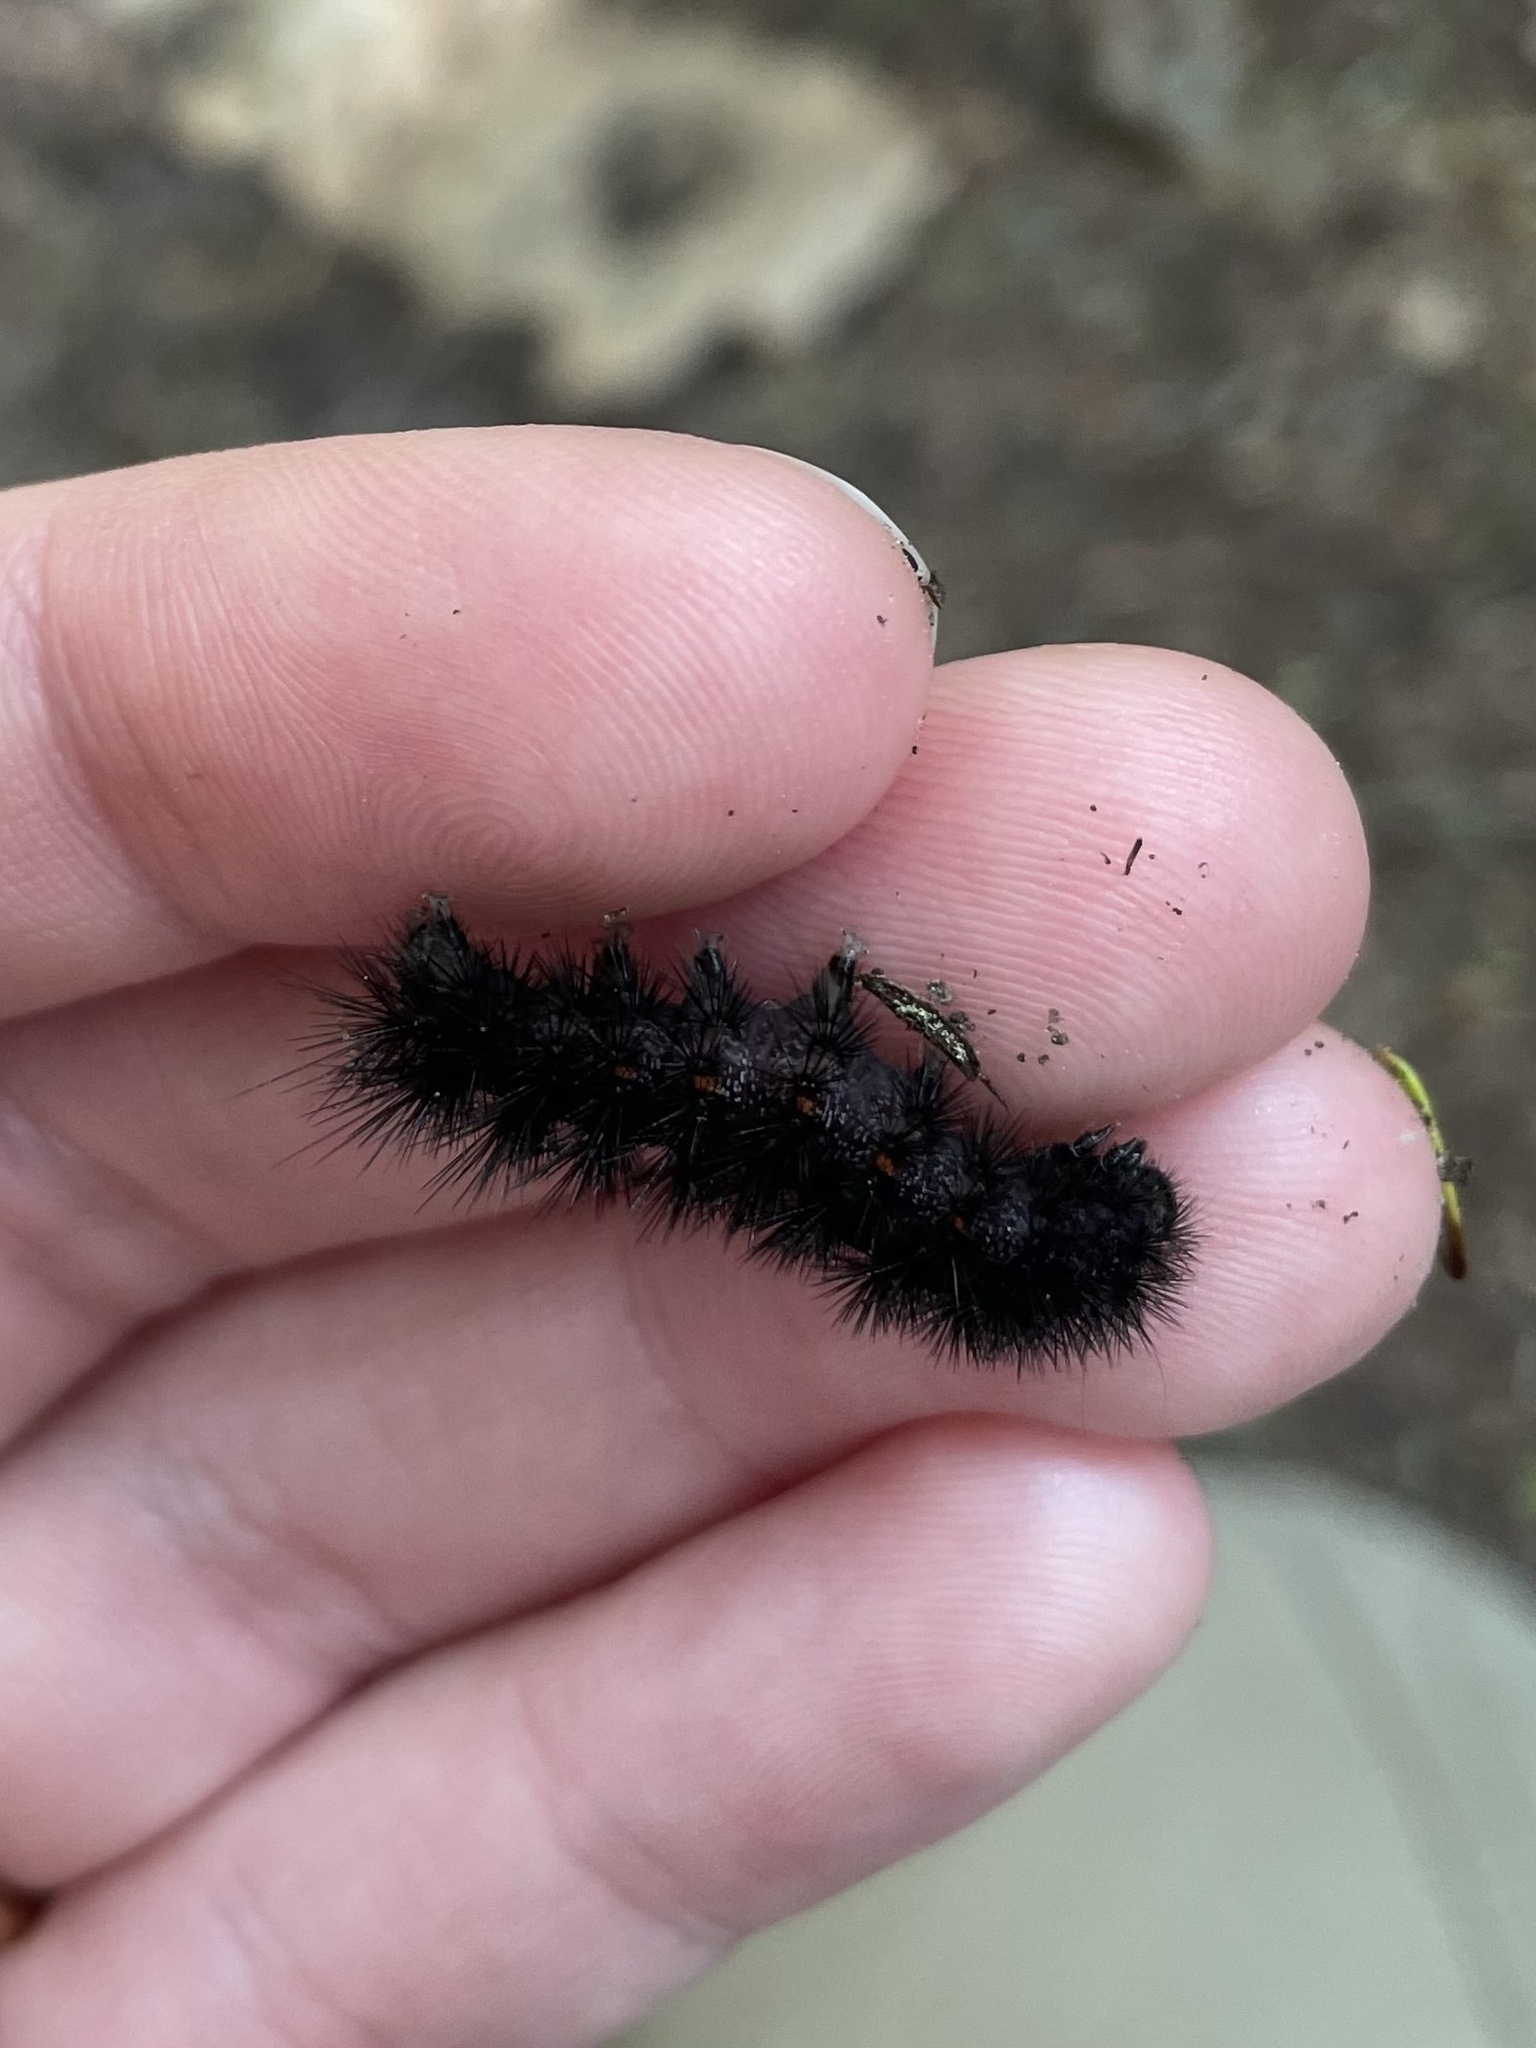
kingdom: Animalia
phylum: Arthropoda
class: Insecta
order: Lepidoptera
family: Noctuidae
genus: Acronicta
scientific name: Acronicta noctivaga
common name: Night-wandering dagger
